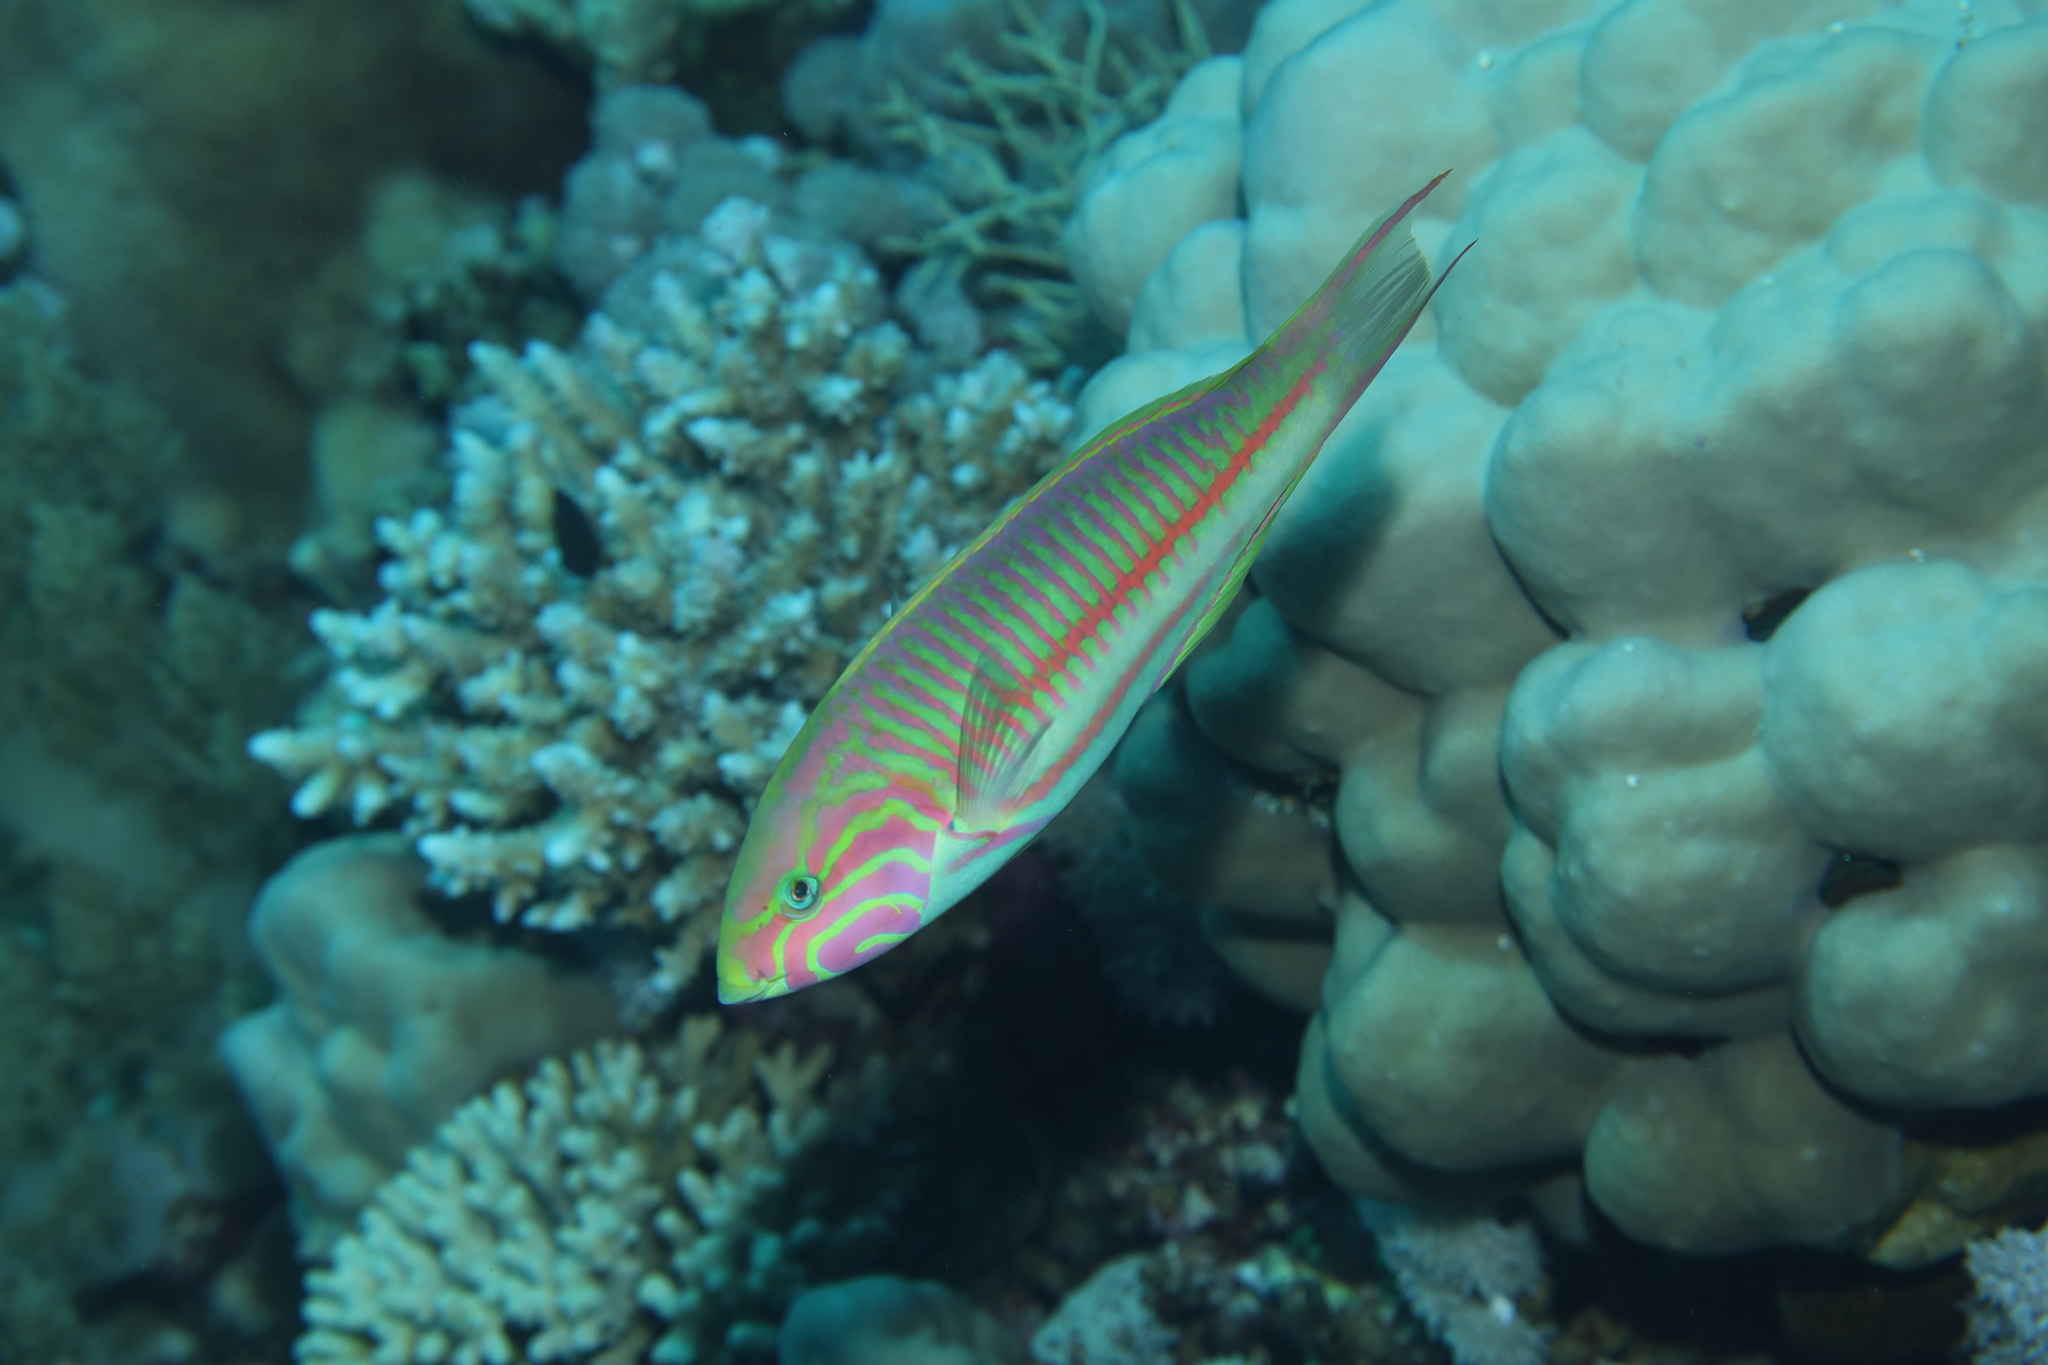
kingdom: Animalia
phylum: Chordata
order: Perciformes
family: Labridae
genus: Thalassoma
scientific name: Thalassoma rueppellii
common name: Klunzinger's wrasse
